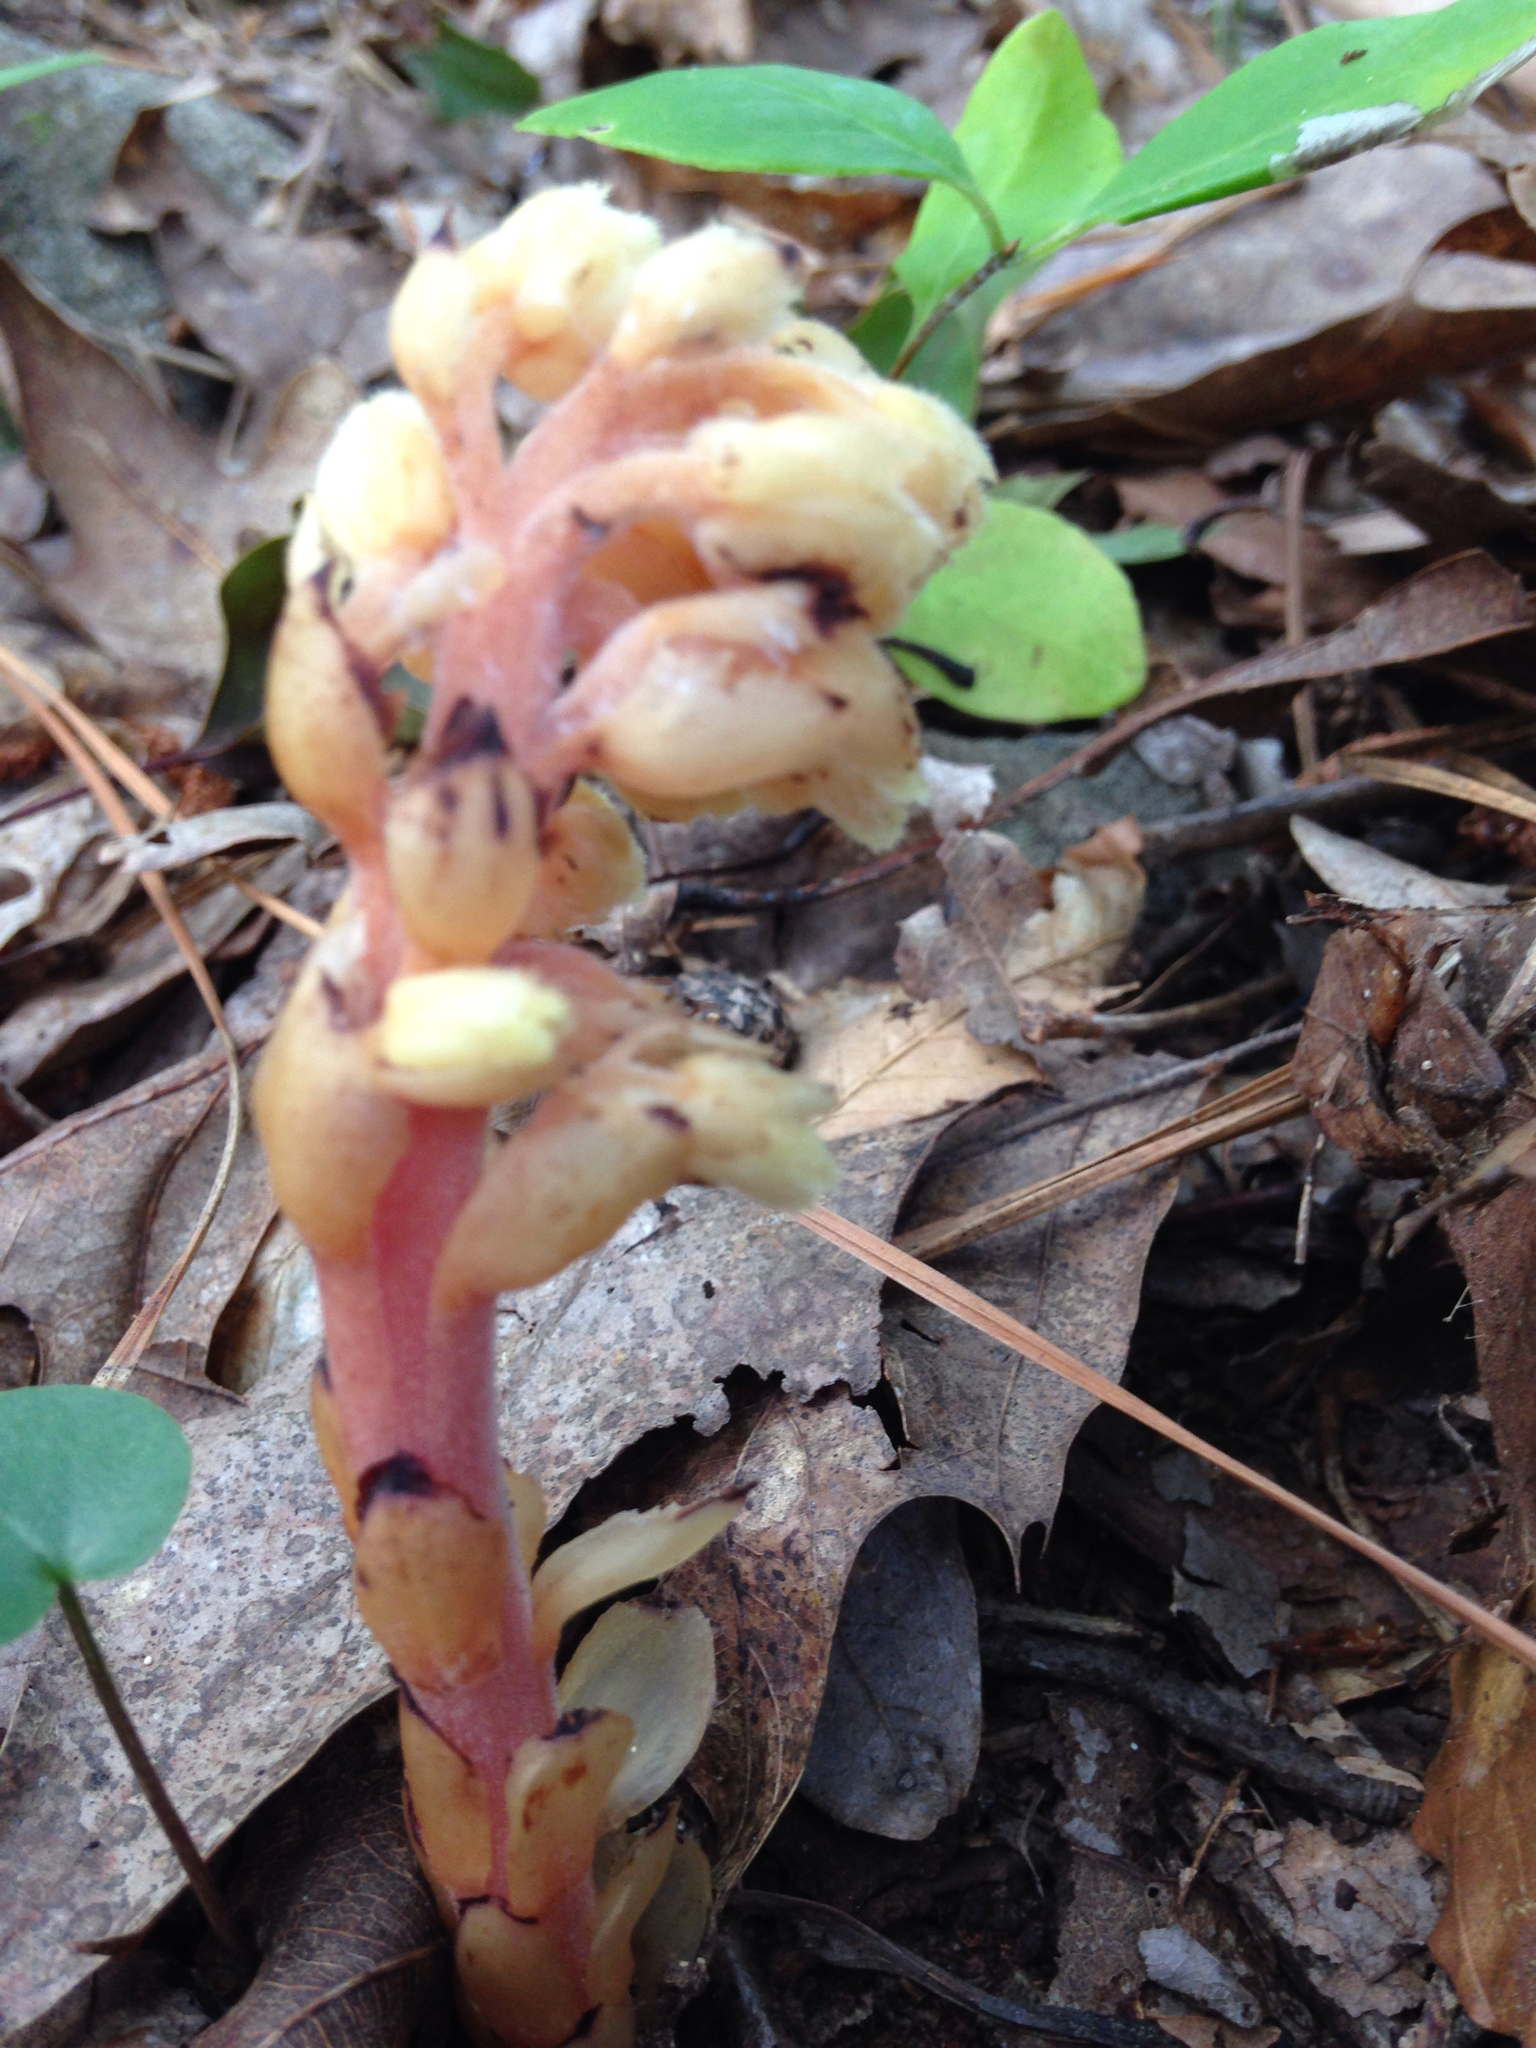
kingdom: Plantae
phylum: Tracheophyta
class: Magnoliopsida
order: Ericales
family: Ericaceae
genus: Hypopitys
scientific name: Hypopitys monotropa
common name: Yellow bird's-nest
